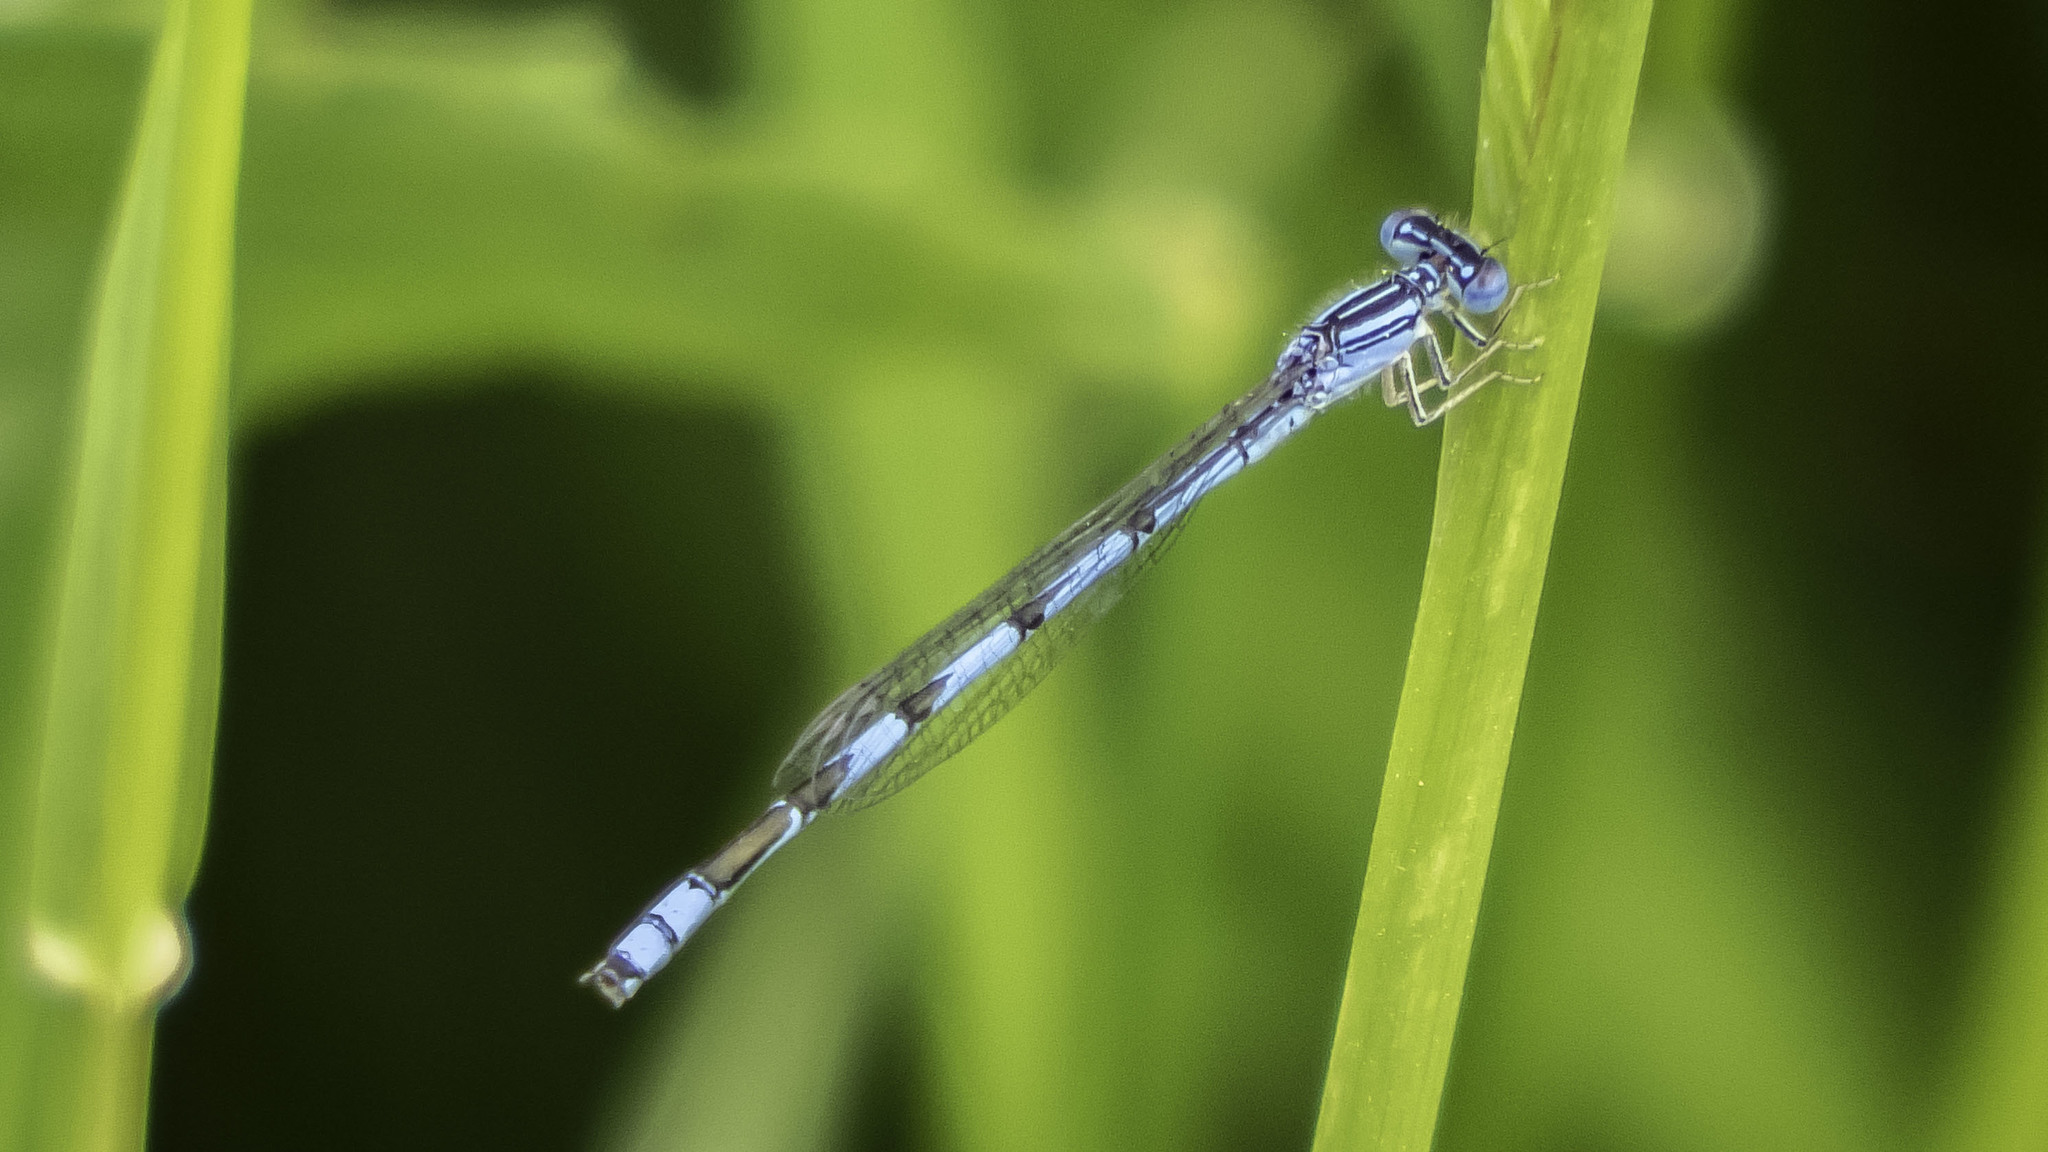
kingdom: Animalia
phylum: Arthropoda
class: Insecta
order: Odonata
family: Coenagrionidae
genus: Enallagma
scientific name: Enallagma basidens
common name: Double-striped bluet
